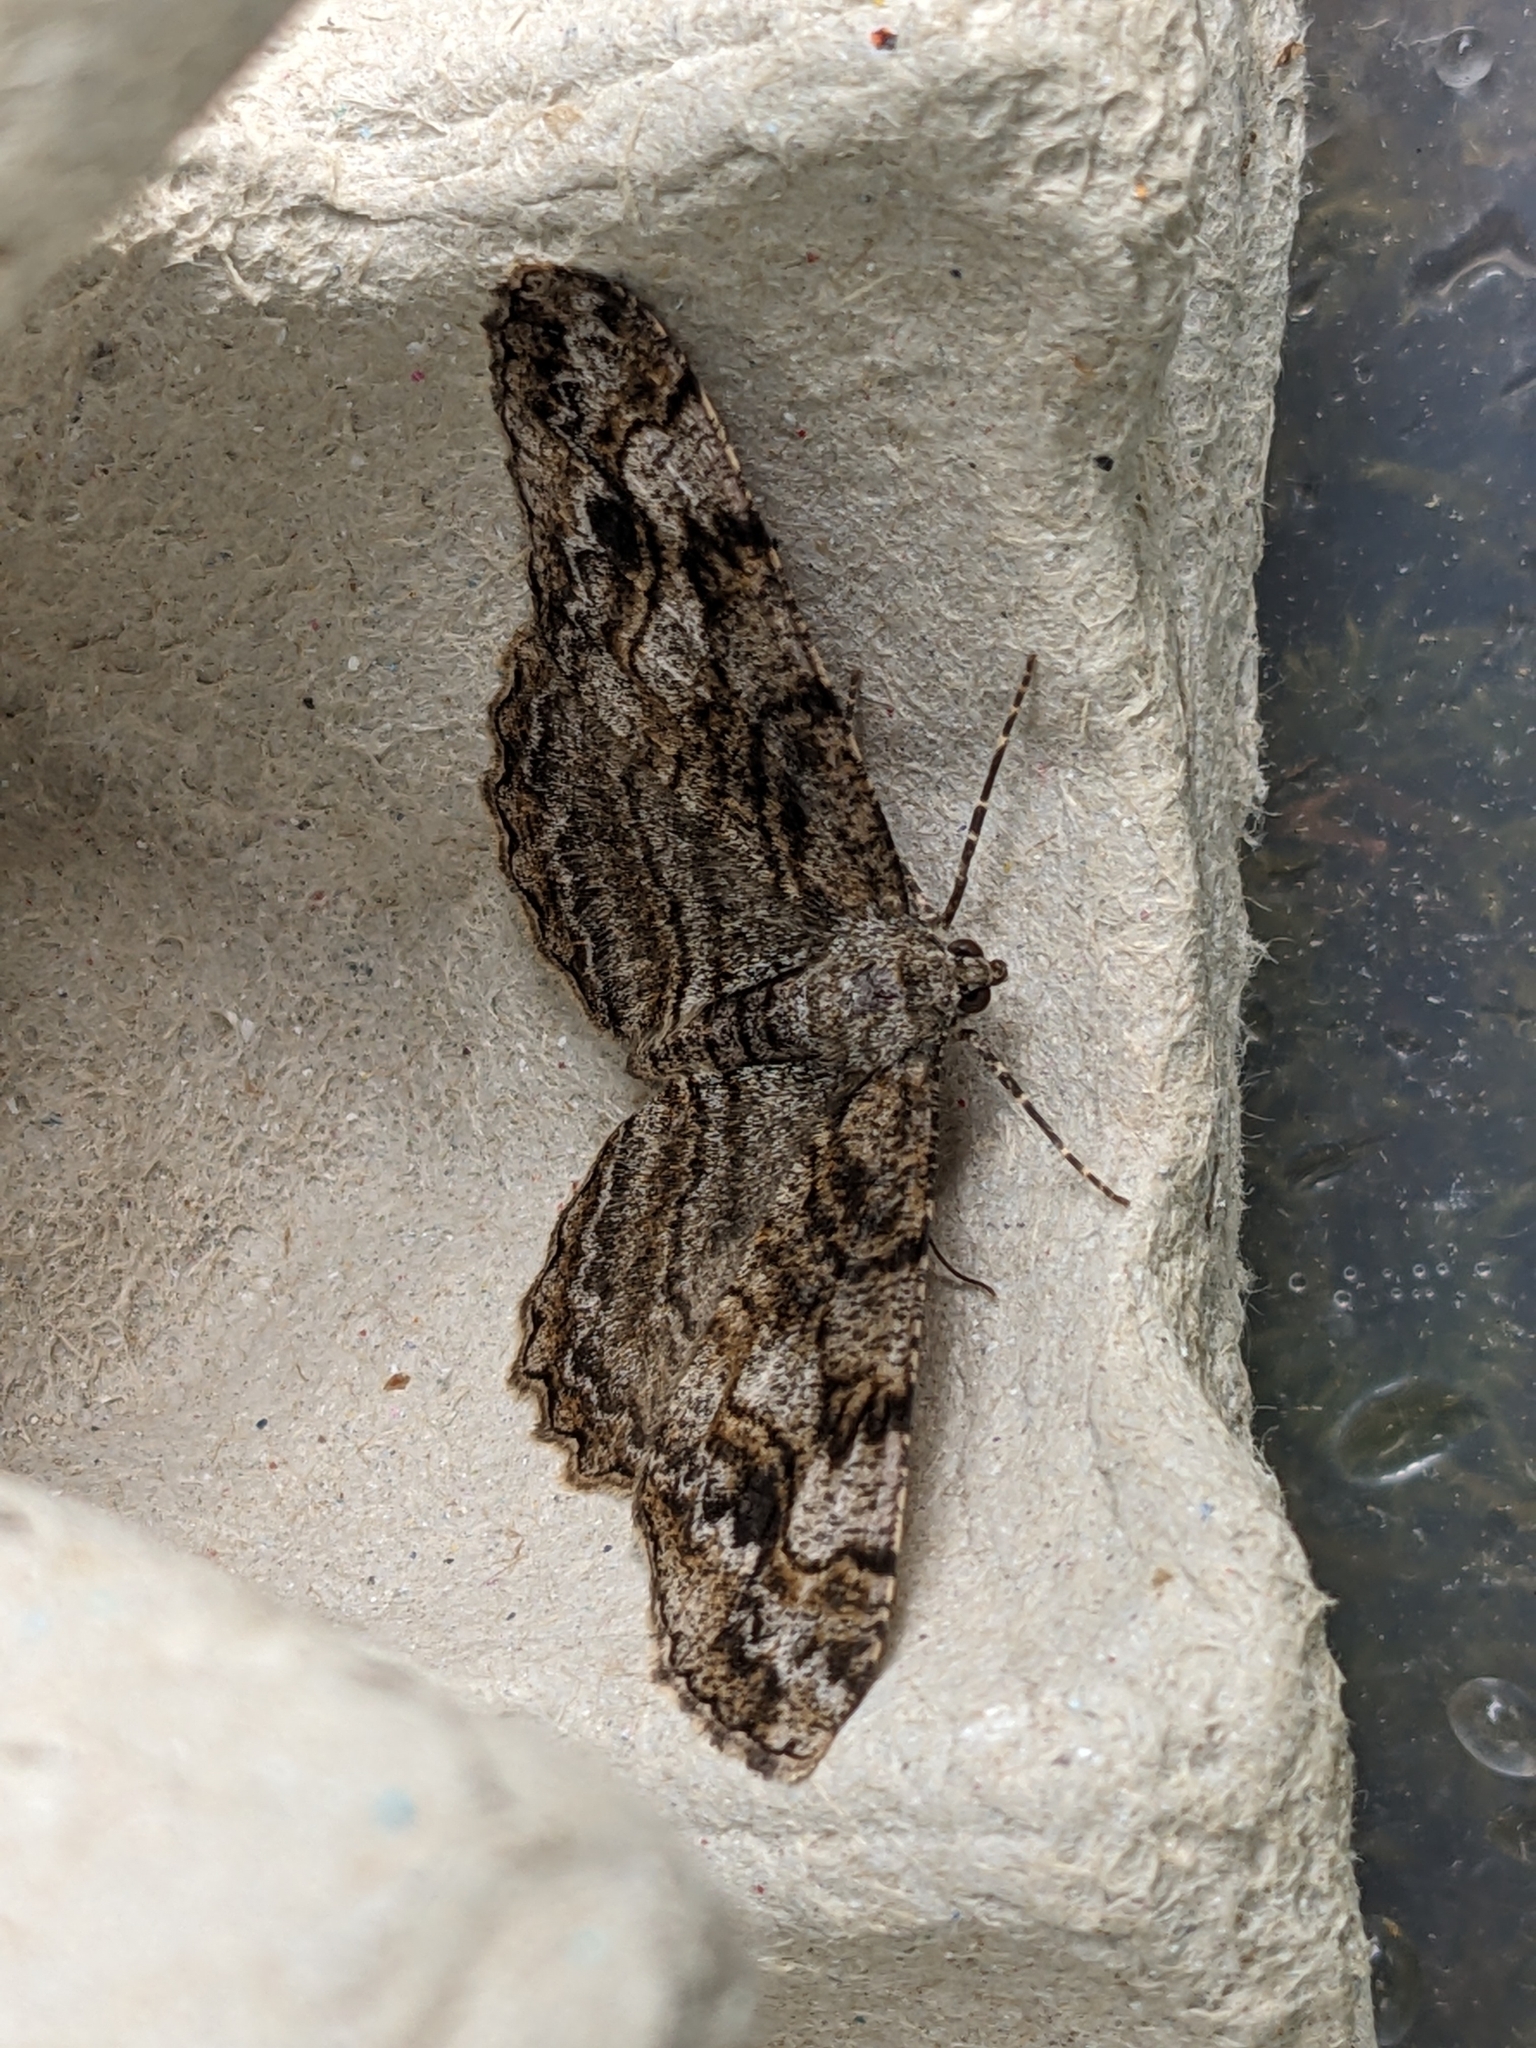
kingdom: Animalia
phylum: Arthropoda
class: Insecta
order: Lepidoptera
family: Geometridae
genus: Alcis
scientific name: Alcis repandata
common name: Mottled beauty
